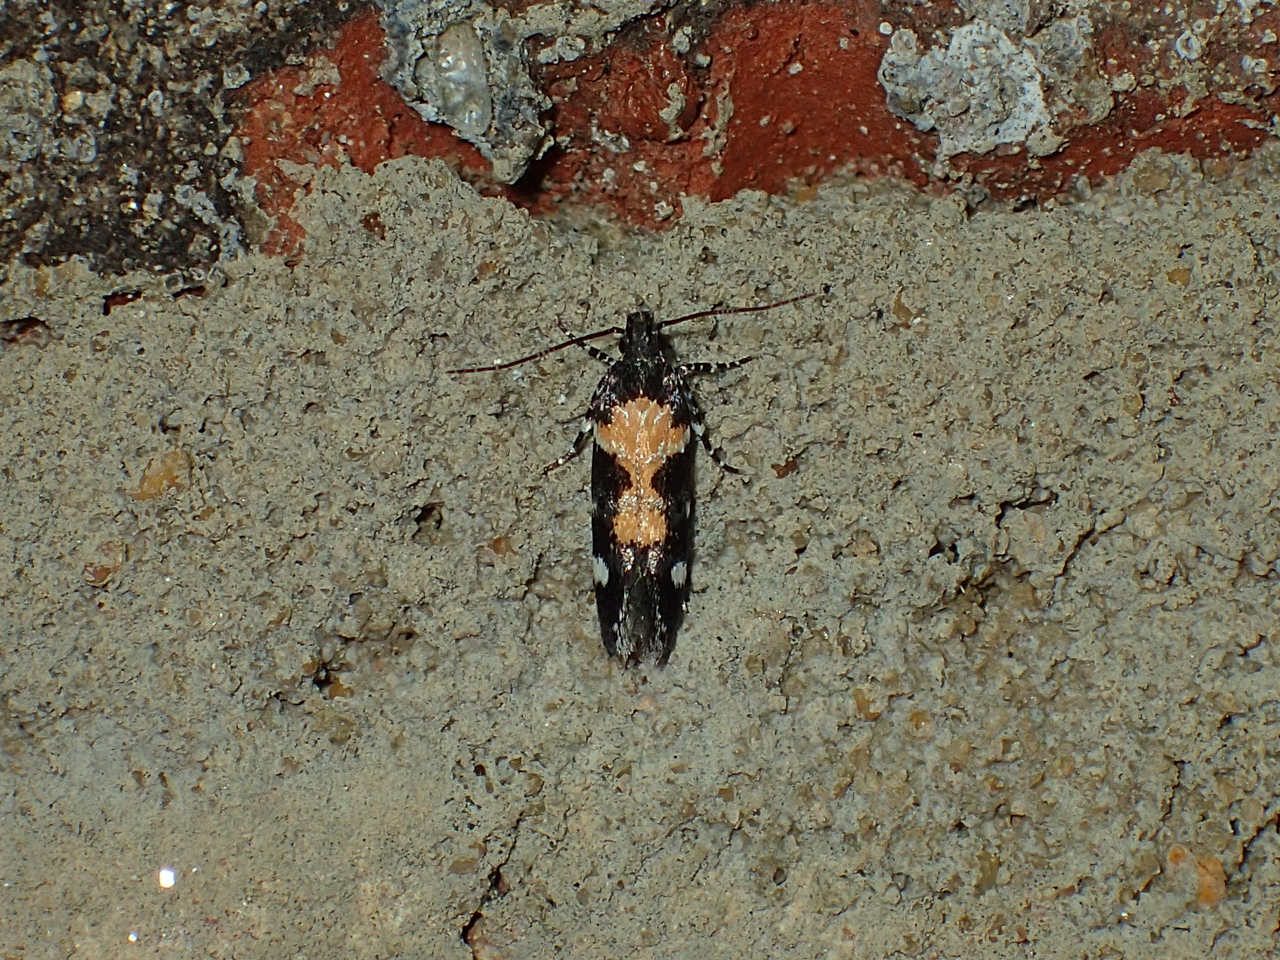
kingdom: Animalia
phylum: Arthropoda
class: Insecta
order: Lepidoptera
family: Gelechiidae
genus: Stegasta
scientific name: Stegasta bosqueella
